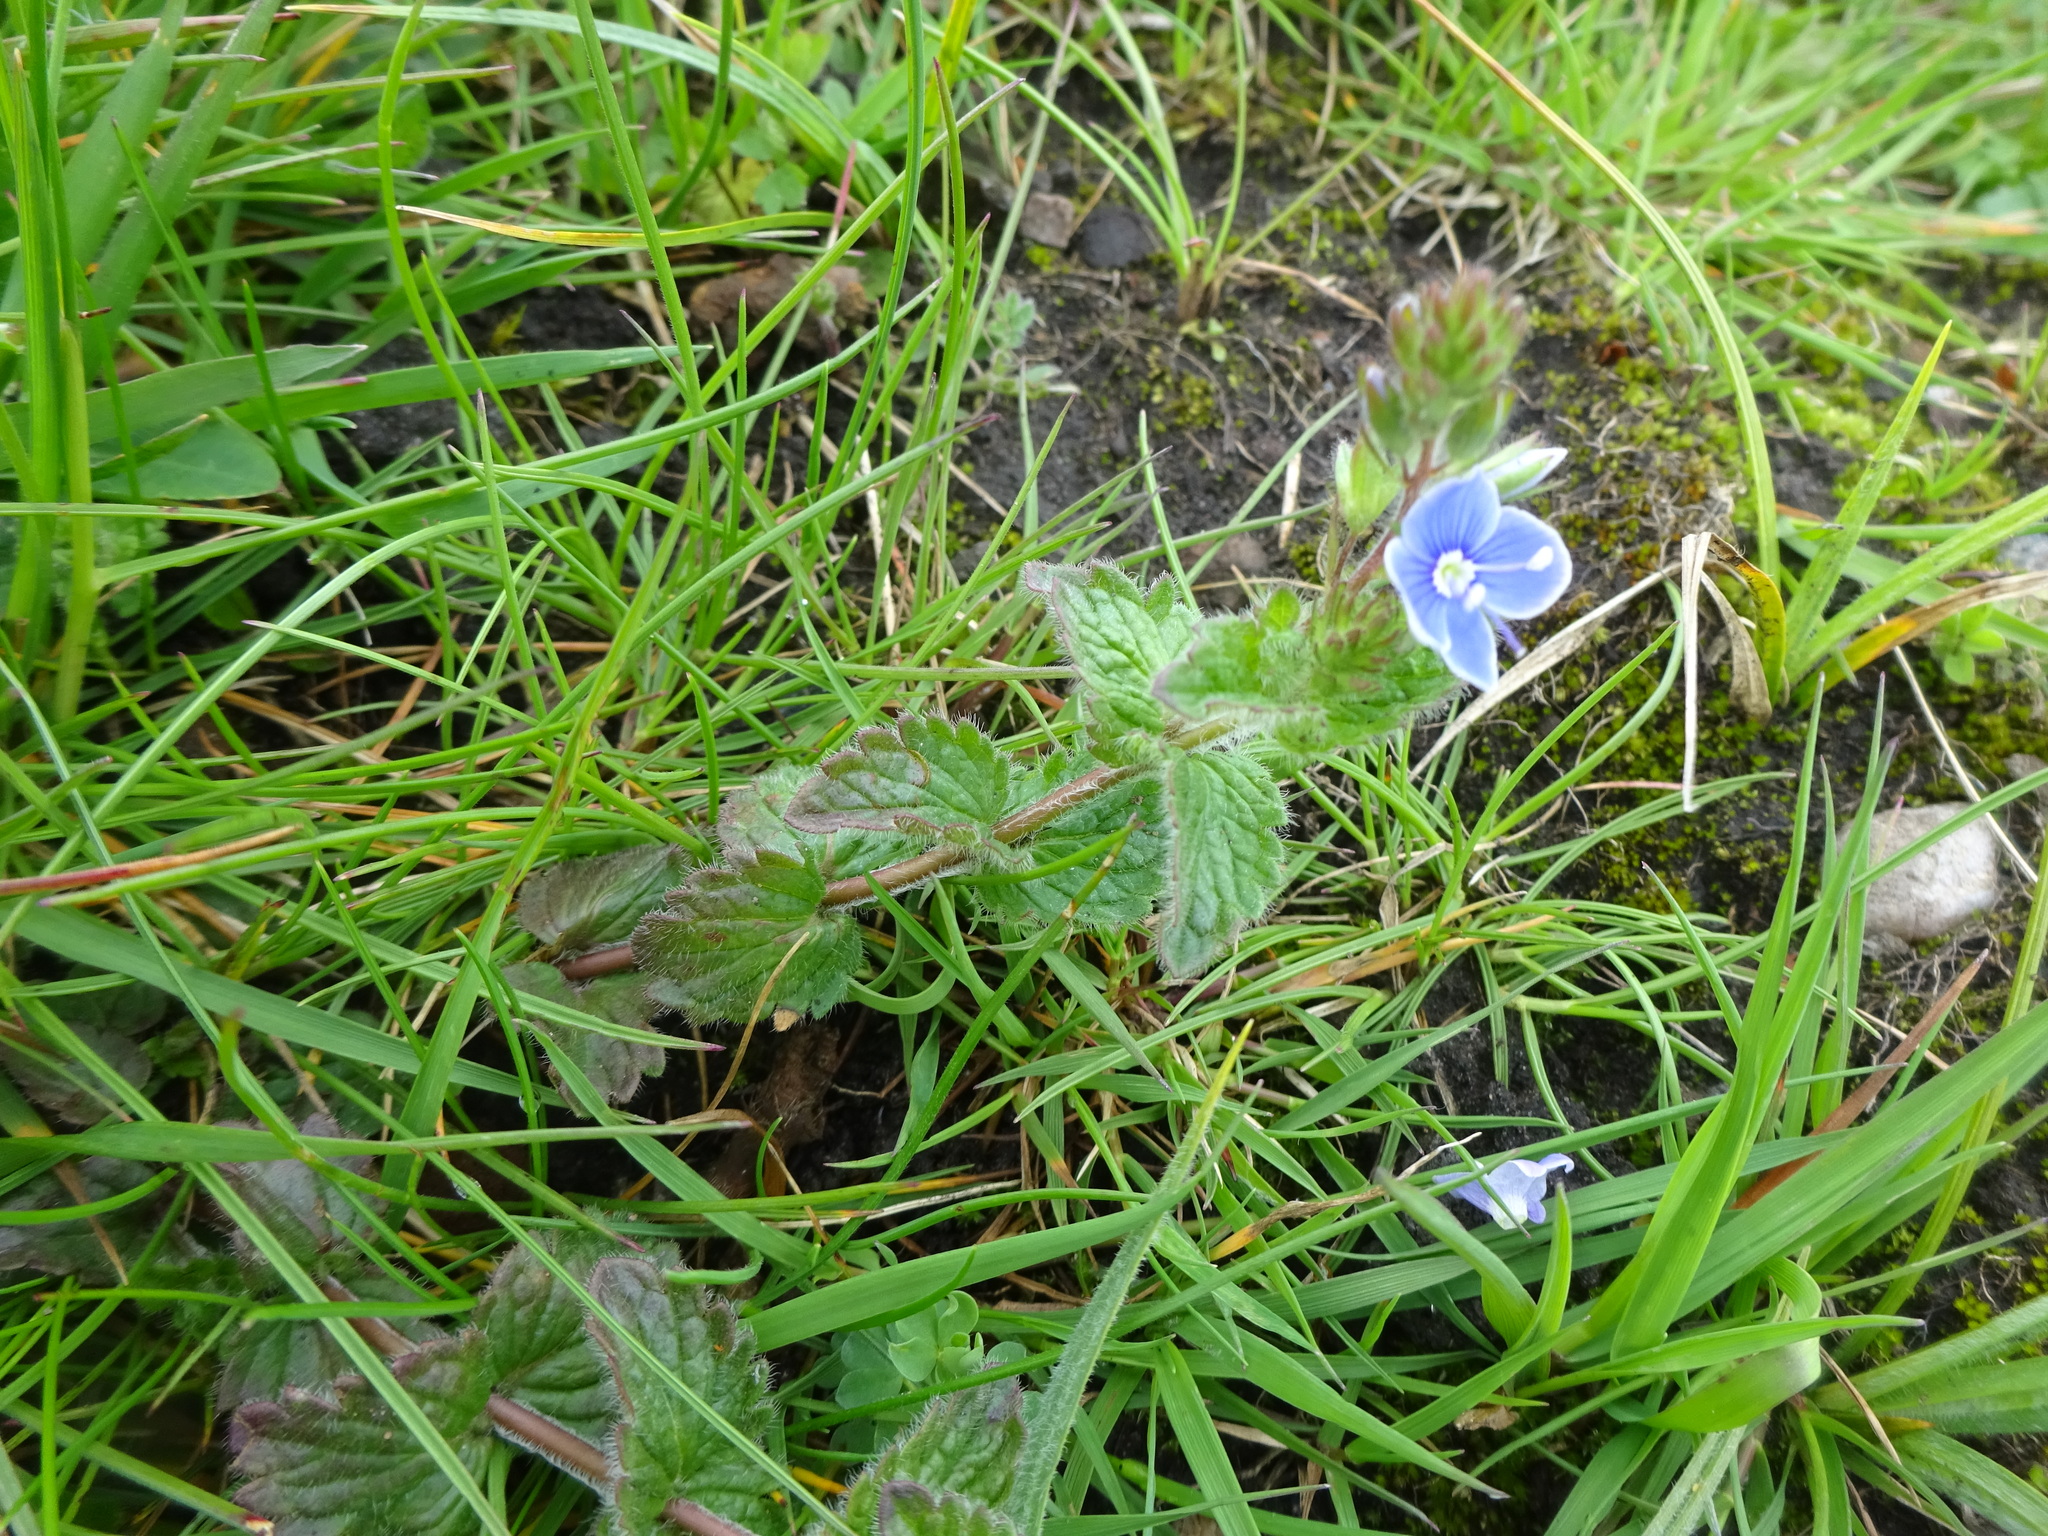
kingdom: Plantae
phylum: Tracheophyta
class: Magnoliopsida
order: Lamiales
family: Plantaginaceae
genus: Veronica
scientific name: Veronica chamaedrys
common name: Germander speedwell
